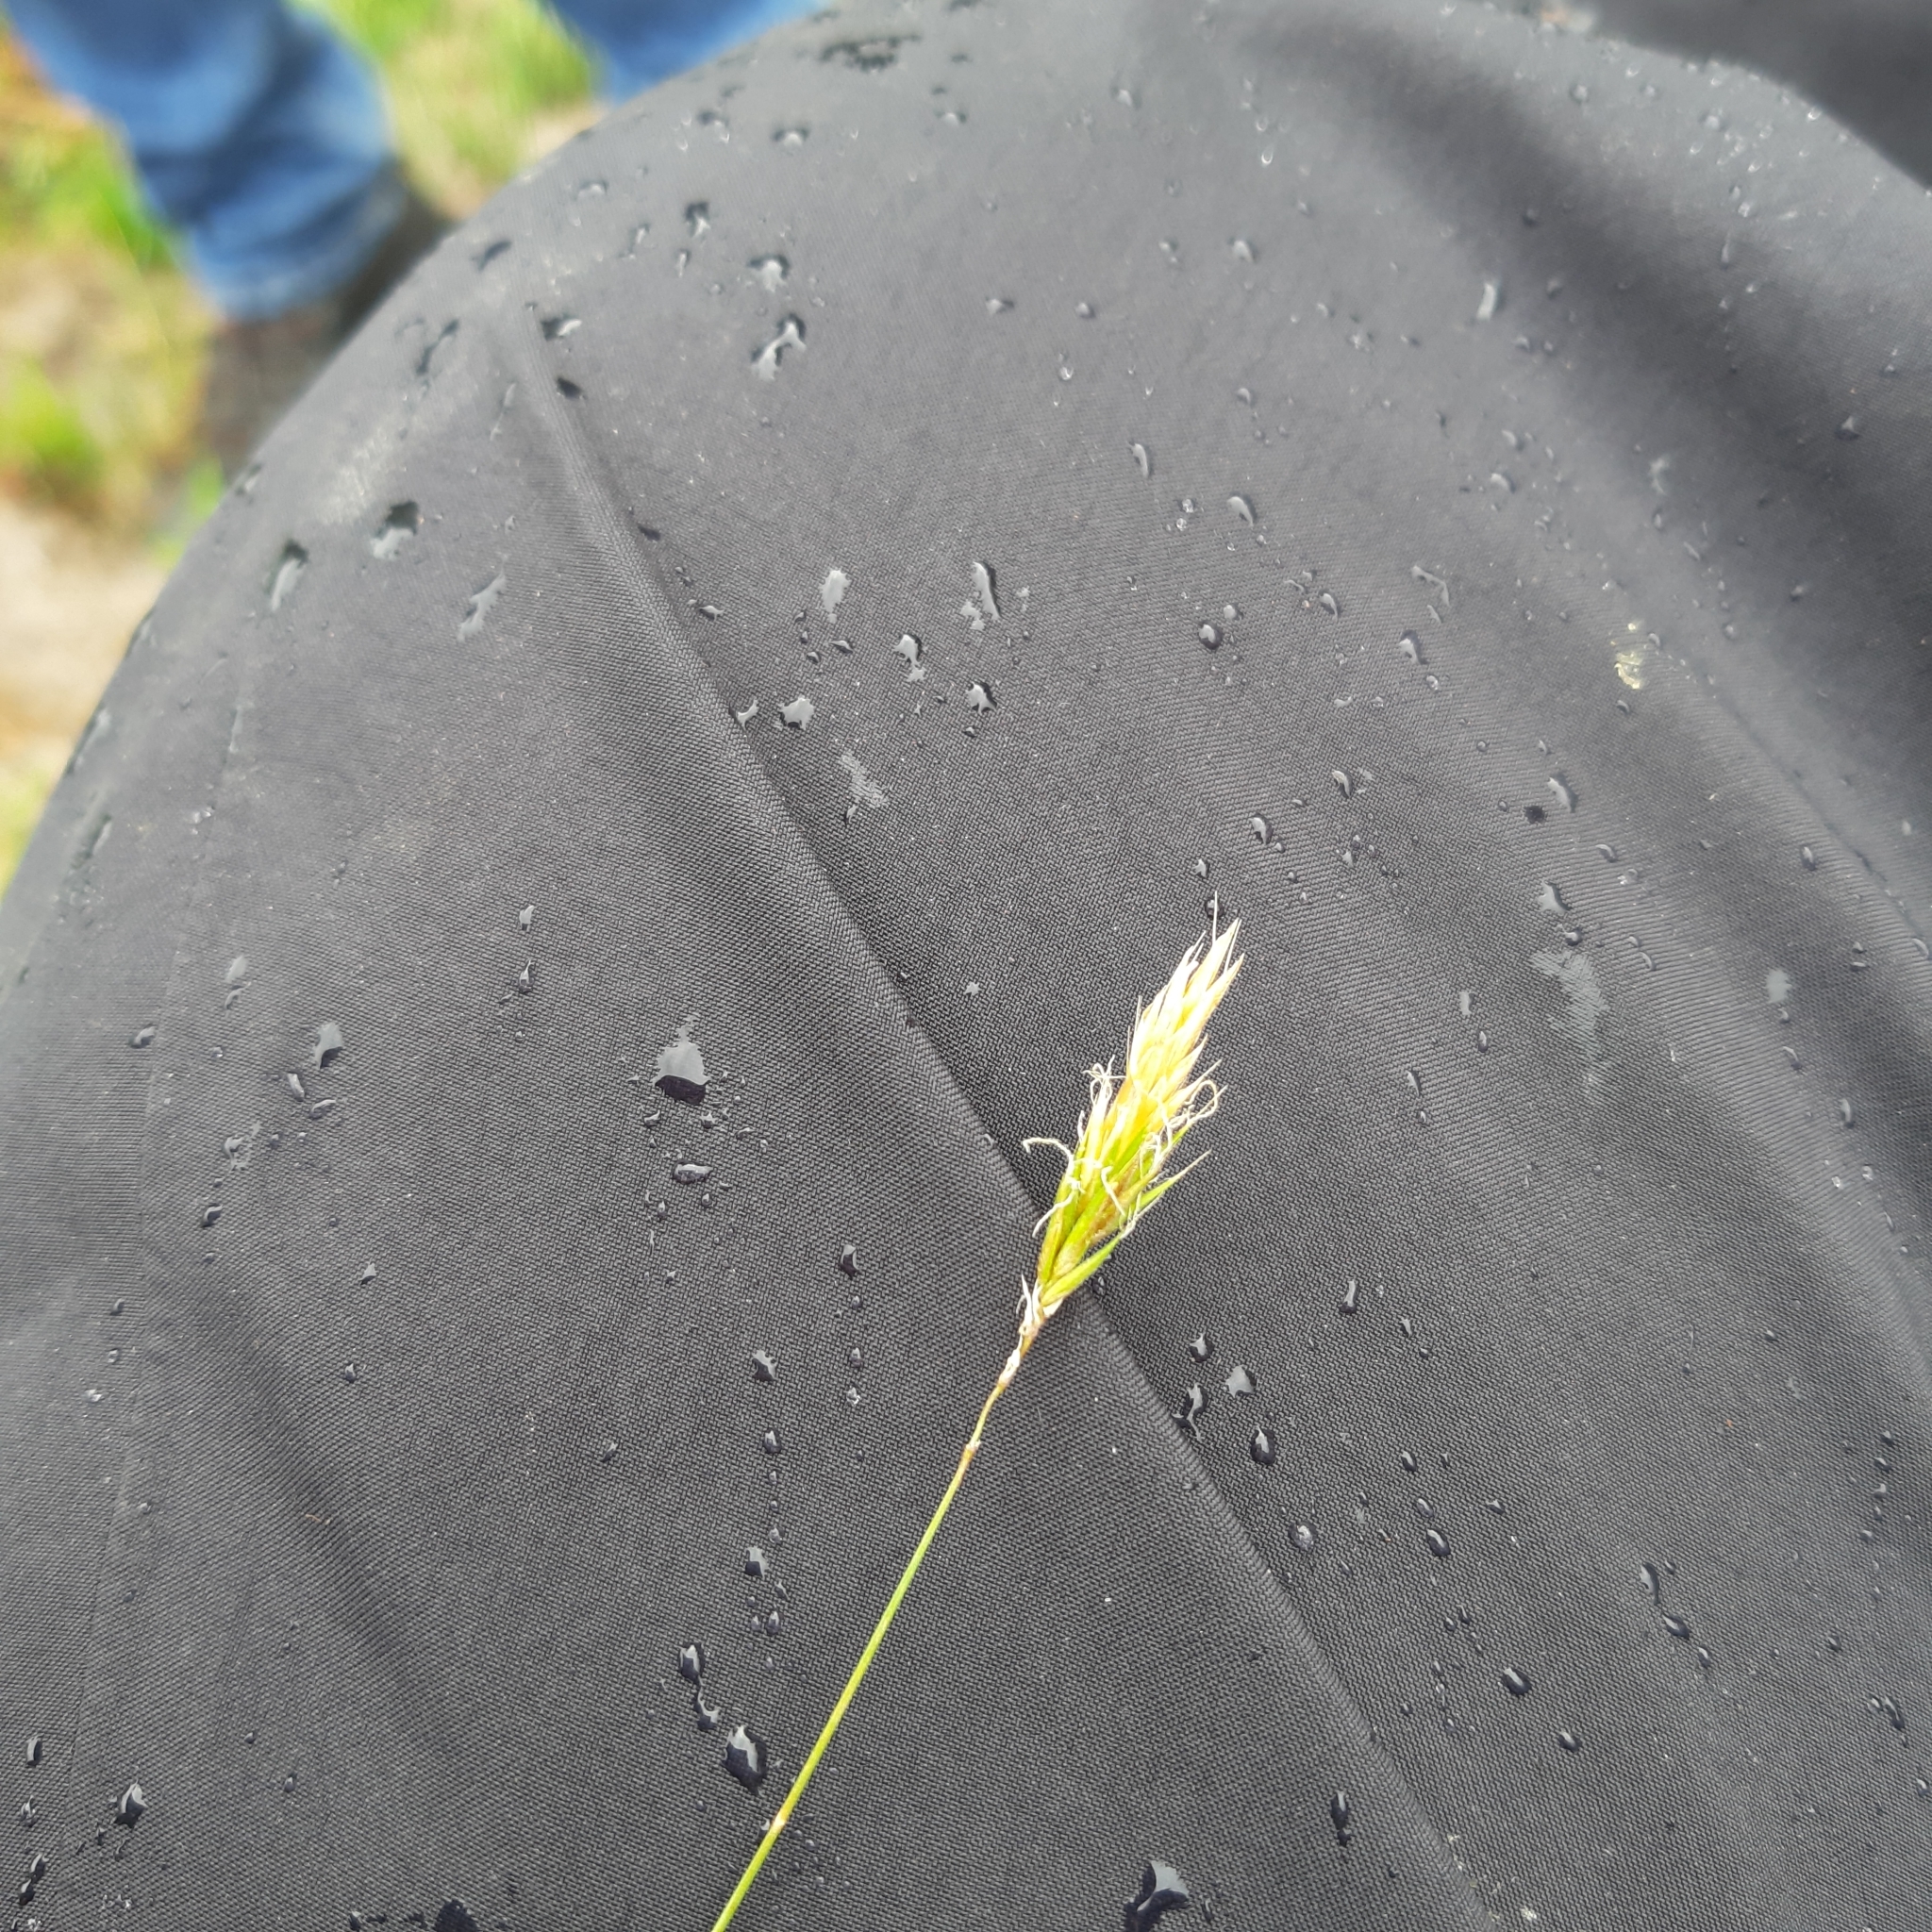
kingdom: Plantae
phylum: Tracheophyta
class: Liliopsida
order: Poales
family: Poaceae
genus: Anthoxanthum
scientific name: Anthoxanthum odoratum
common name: Sweet vernalgrass
